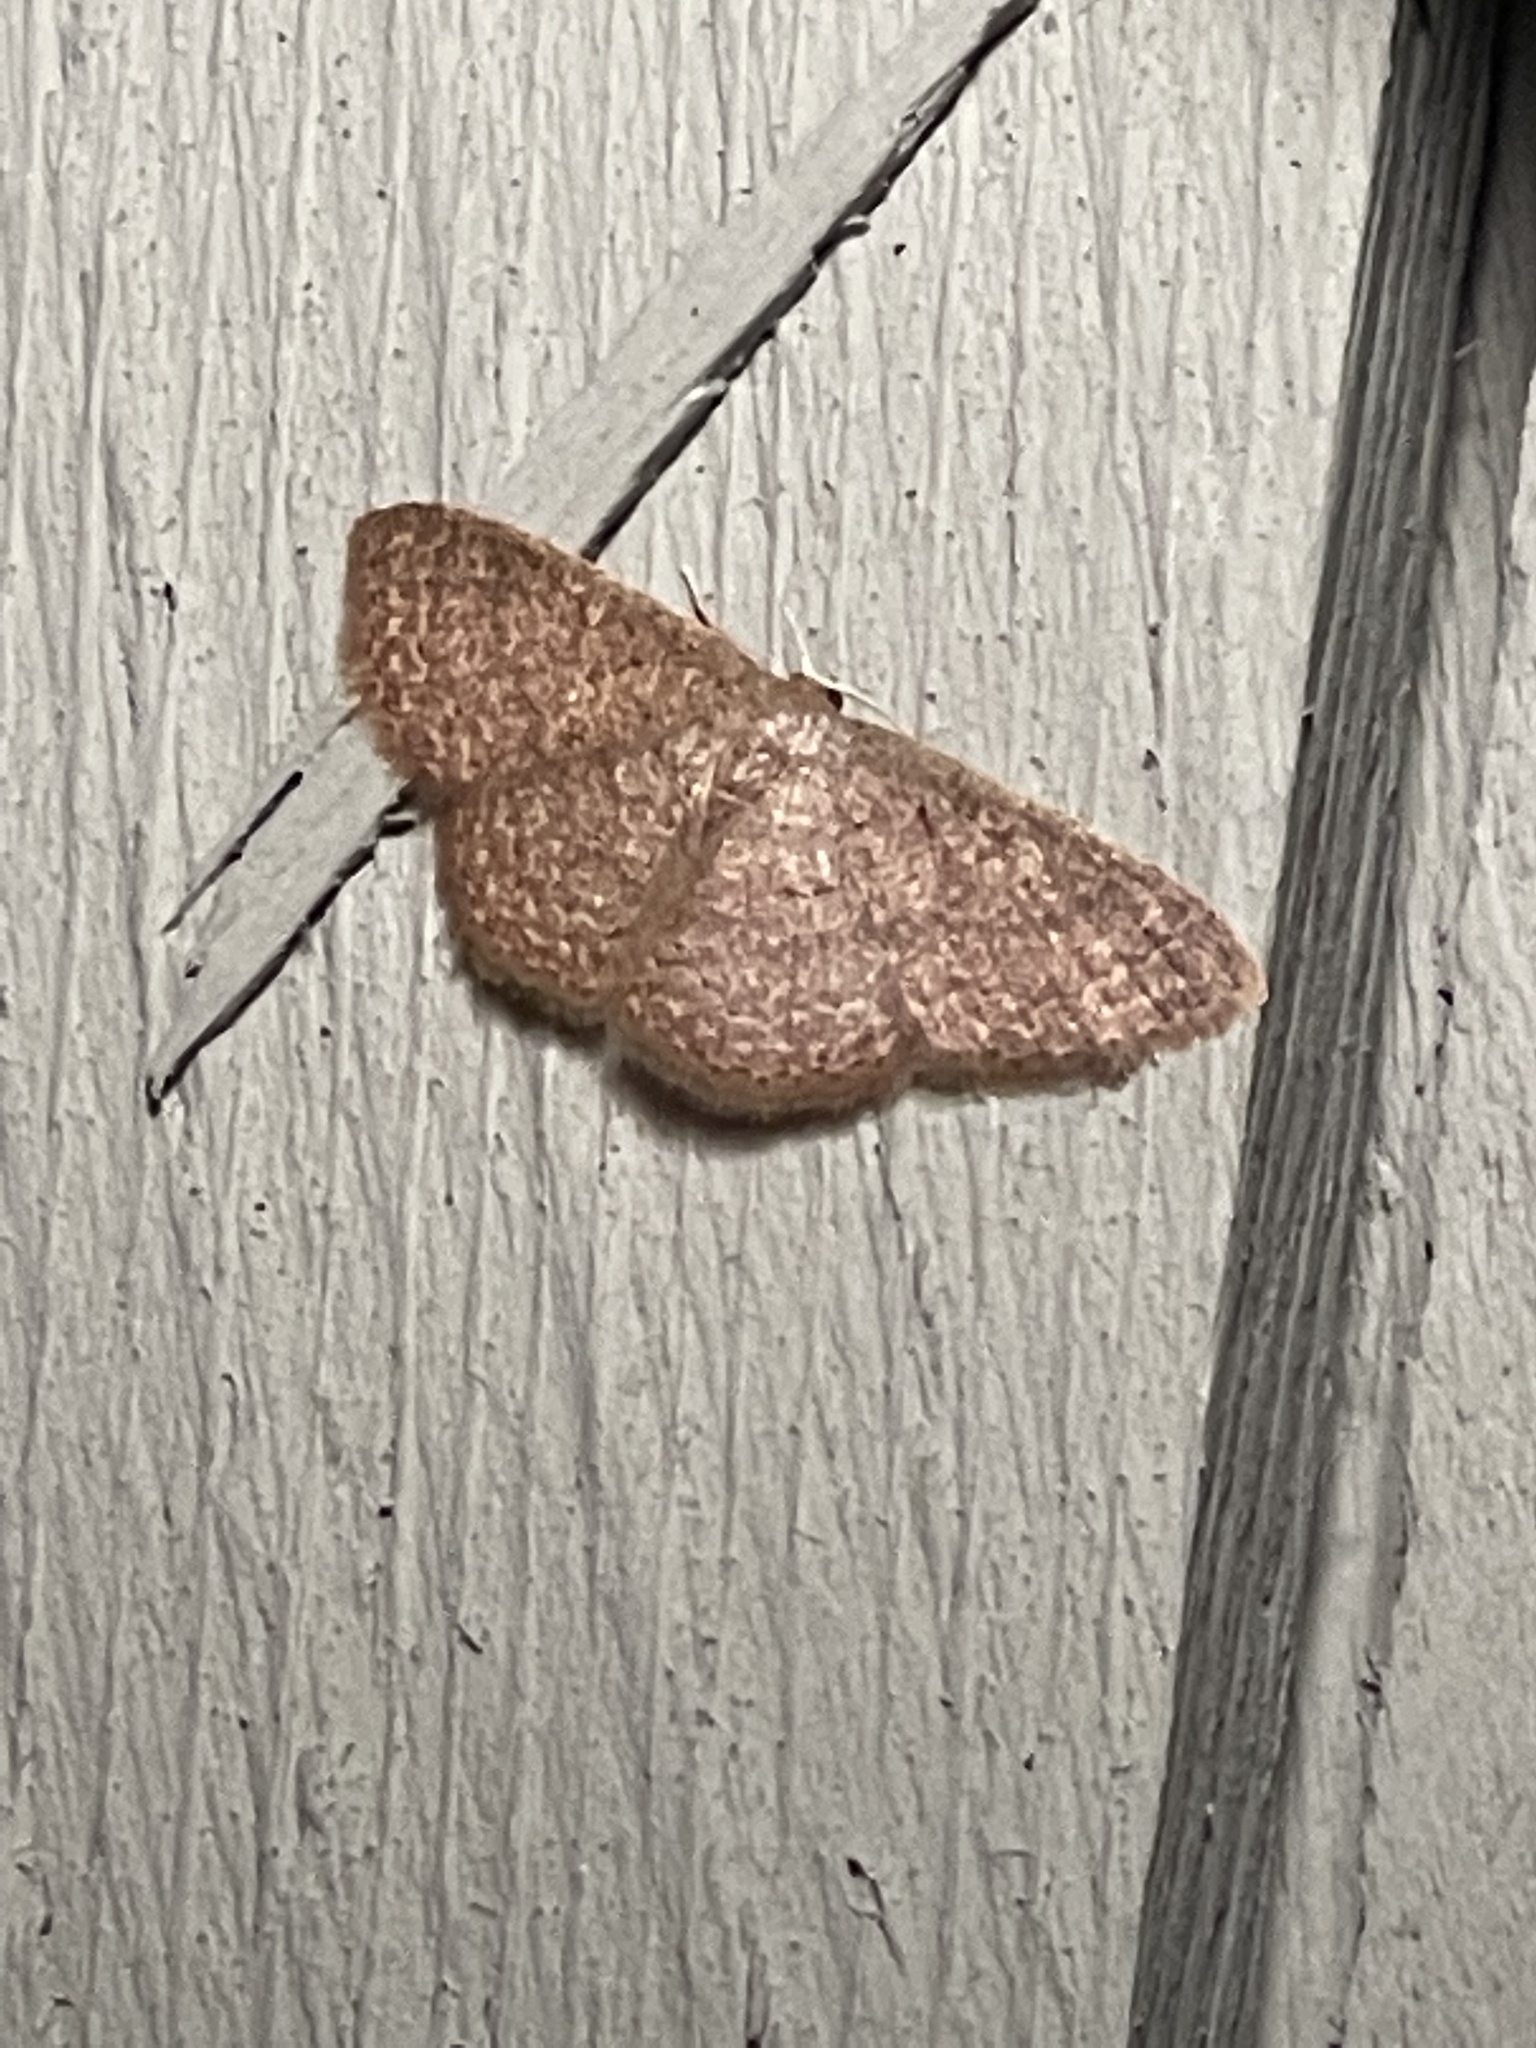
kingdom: Animalia
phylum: Arthropoda
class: Insecta
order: Lepidoptera
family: Geometridae
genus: Pleuroprucha
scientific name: Pleuroprucha insulsaria
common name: Common tan wave
